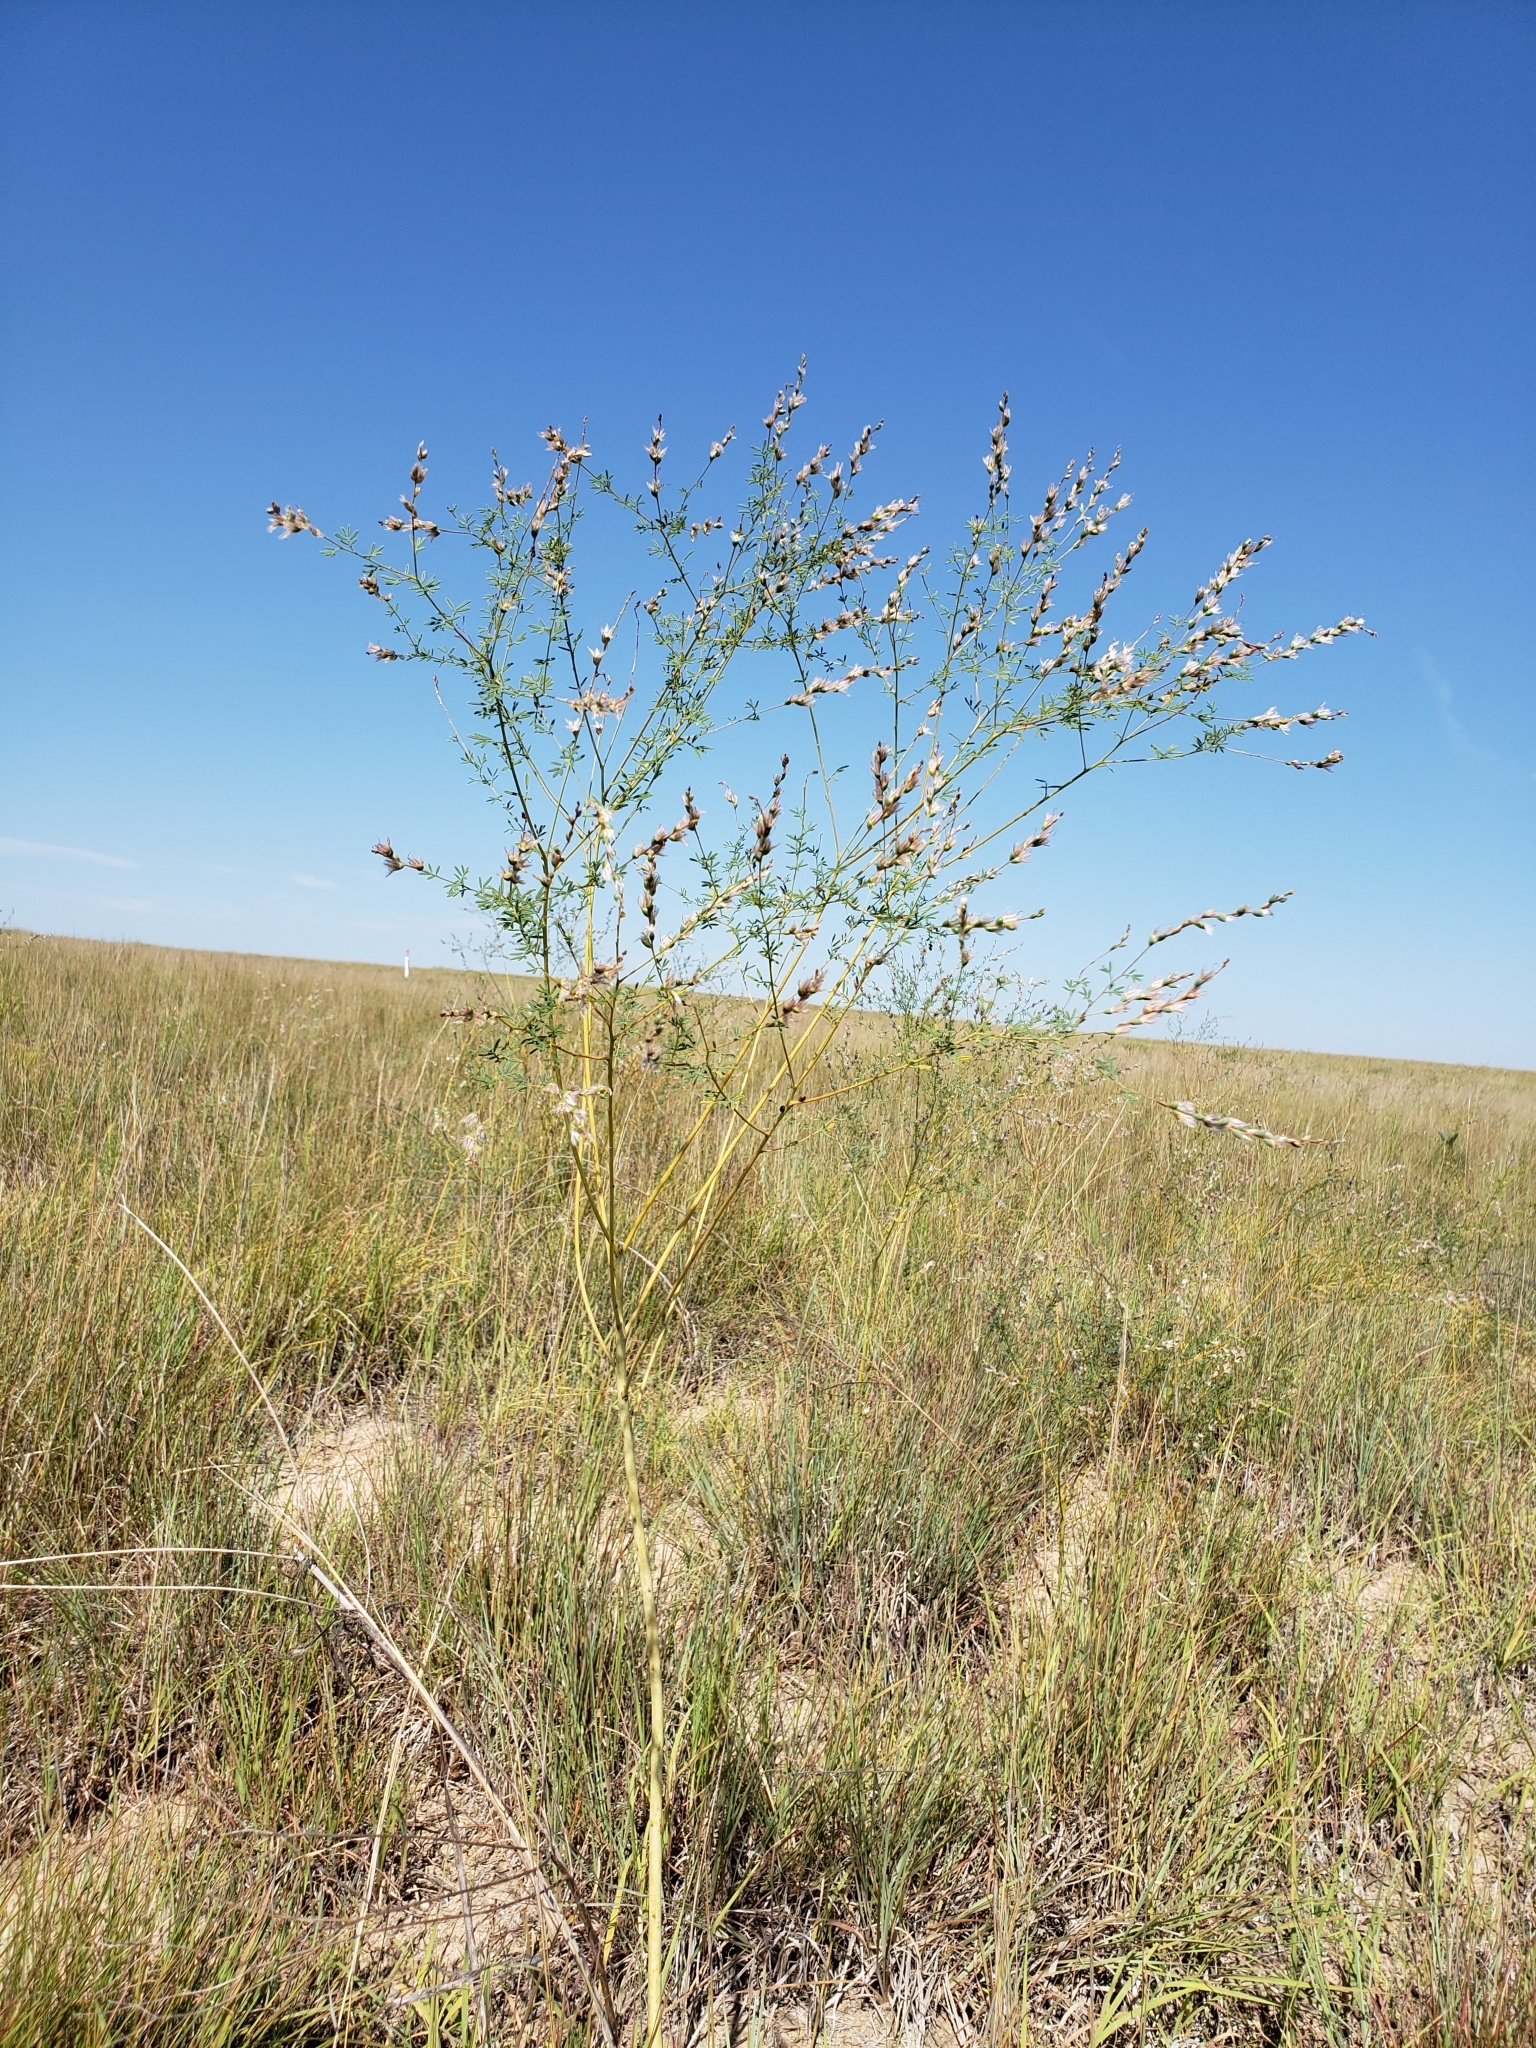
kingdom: Plantae
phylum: Tracheophyta
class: Magnoliopsida
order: Fabales
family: Fabaceae
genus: Dalea
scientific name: Dalea enneandra
